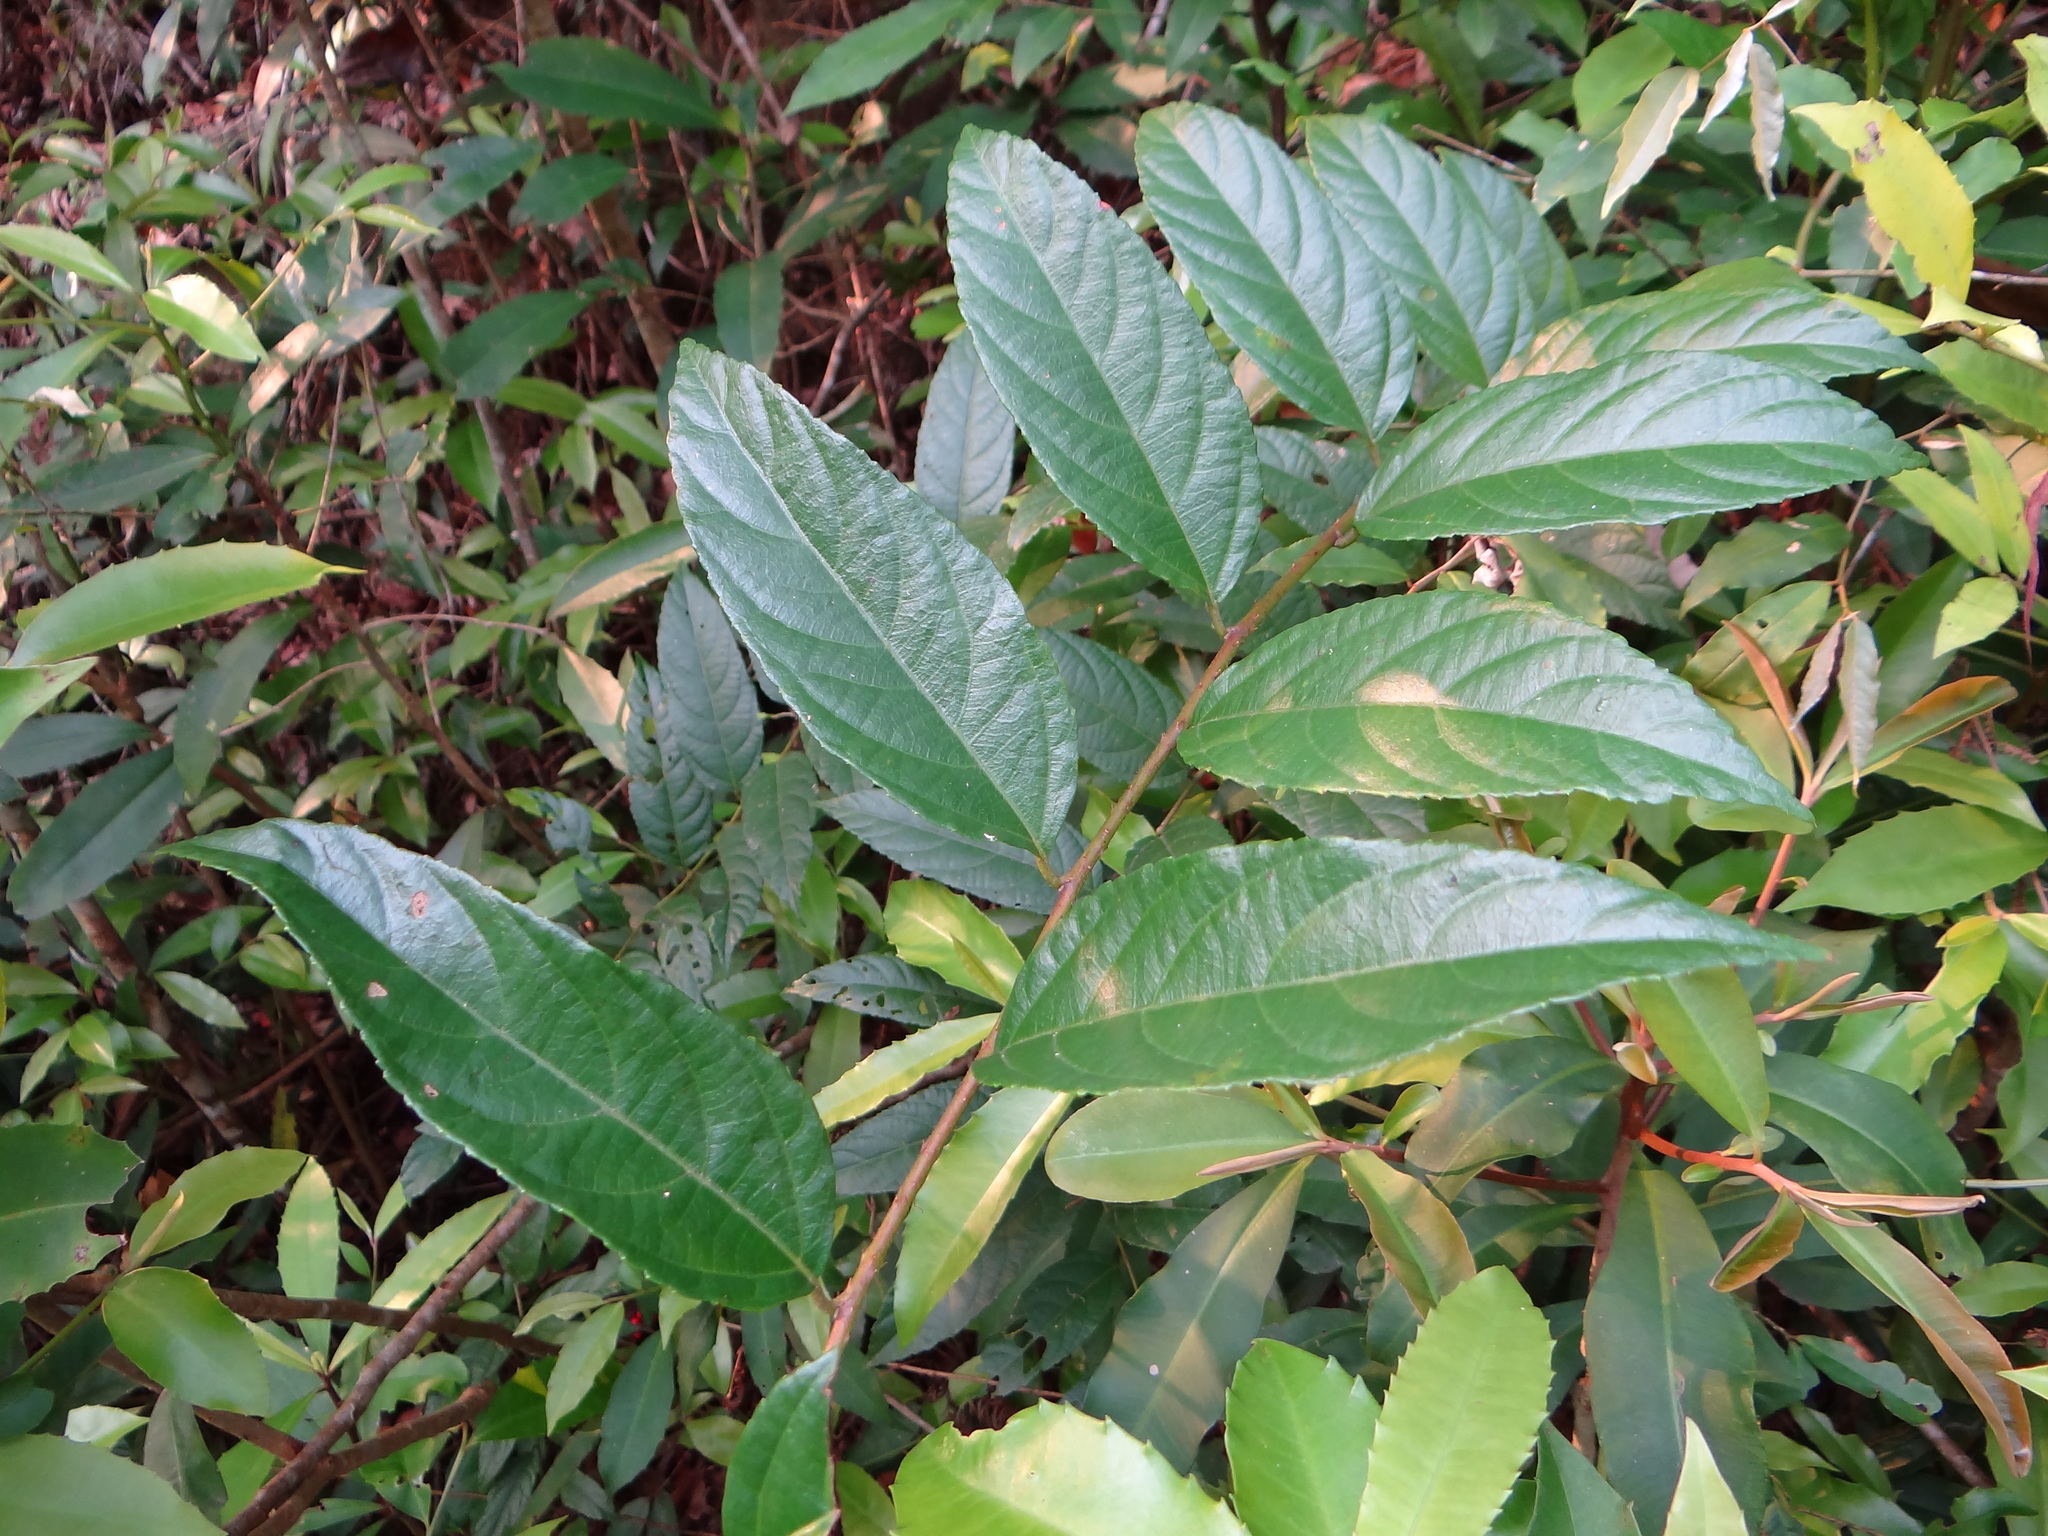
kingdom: Plantae
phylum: Tracheophyta
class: Magnoliopsida
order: Rosales
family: Rosaceae
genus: Rubus
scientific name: Rubus
